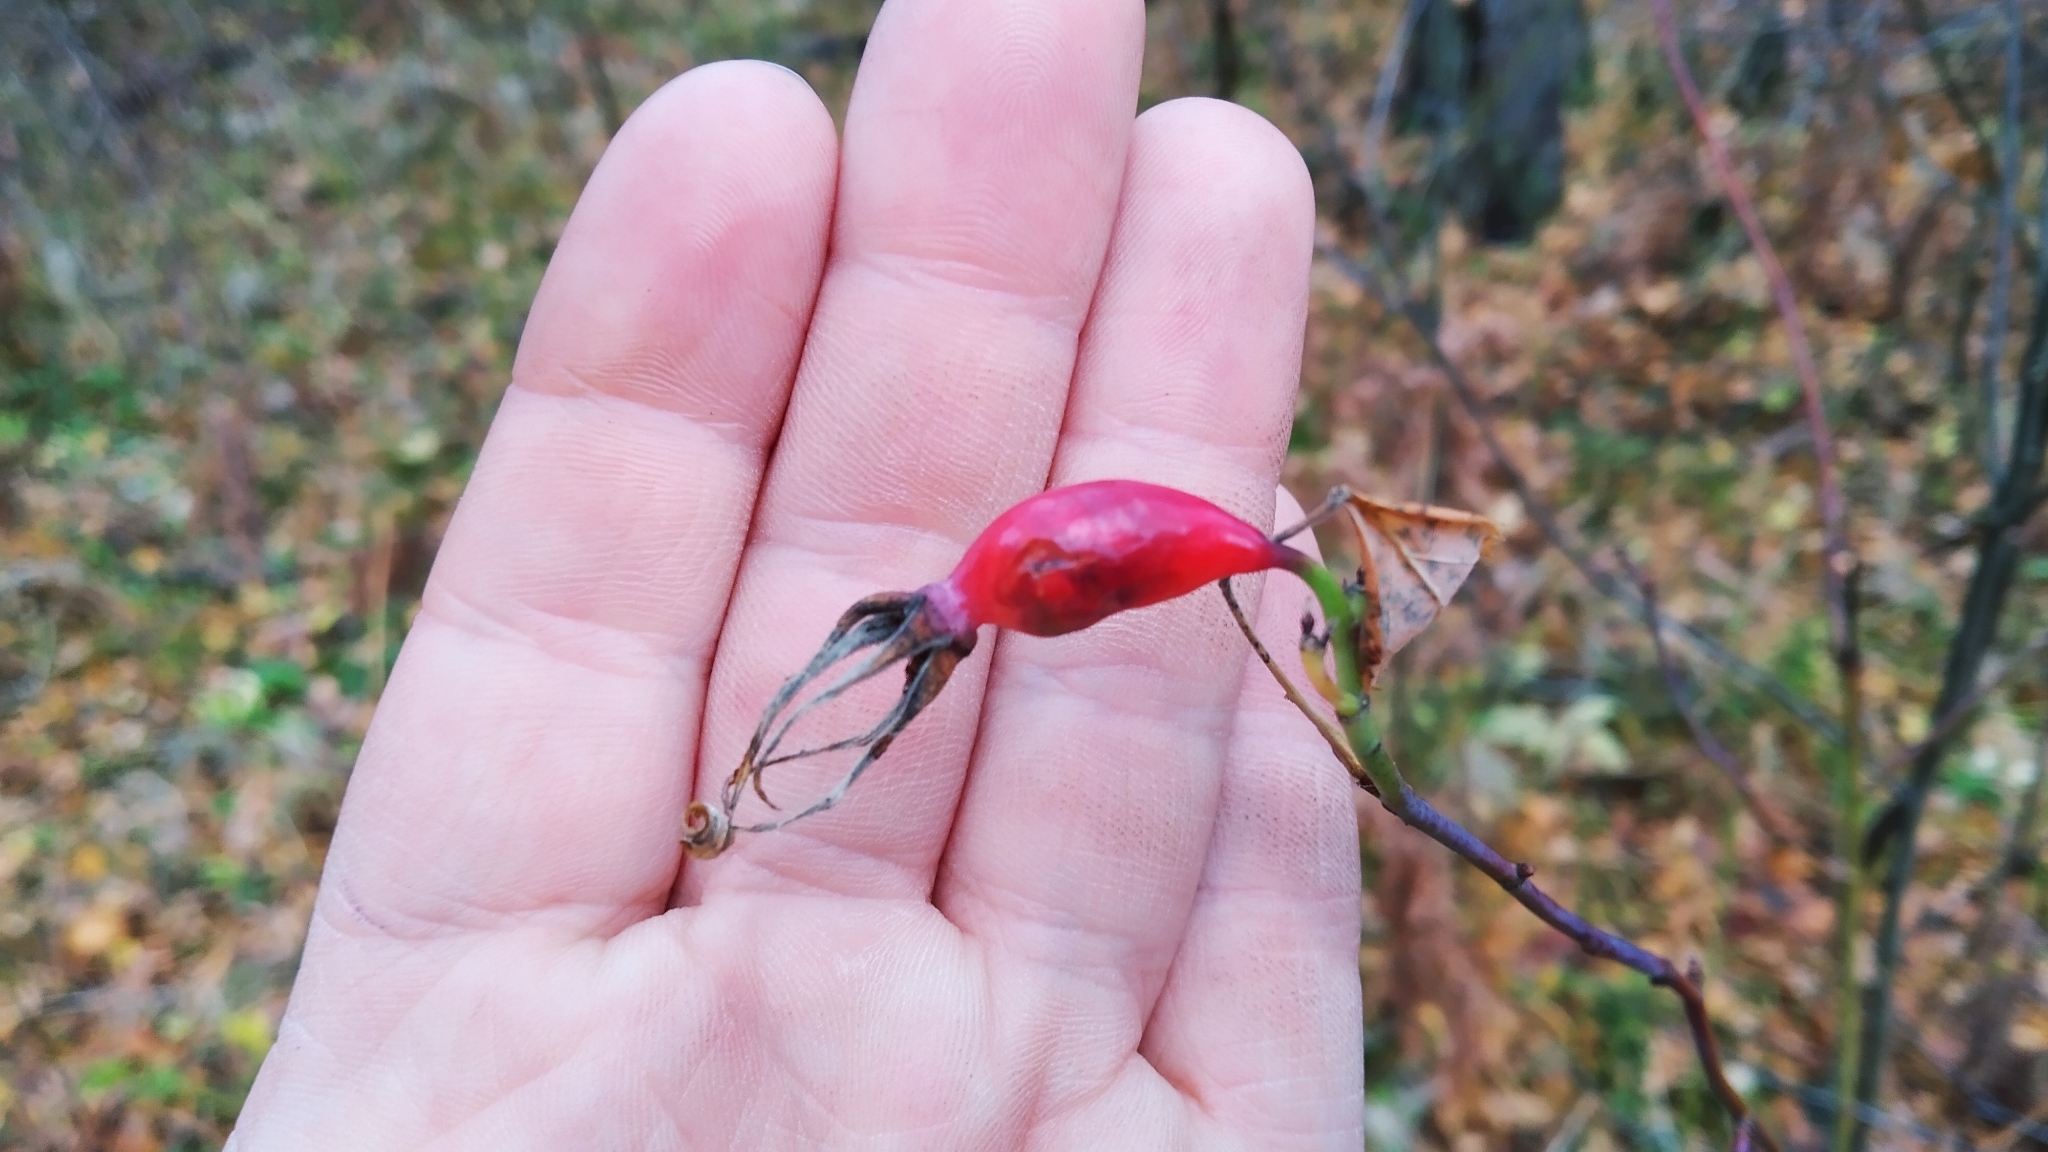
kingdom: Plantae
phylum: Tracheophyta
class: Magnoliopsida
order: Rosales
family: Rosaceae
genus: Rosa
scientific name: Rosa glabrifolia
